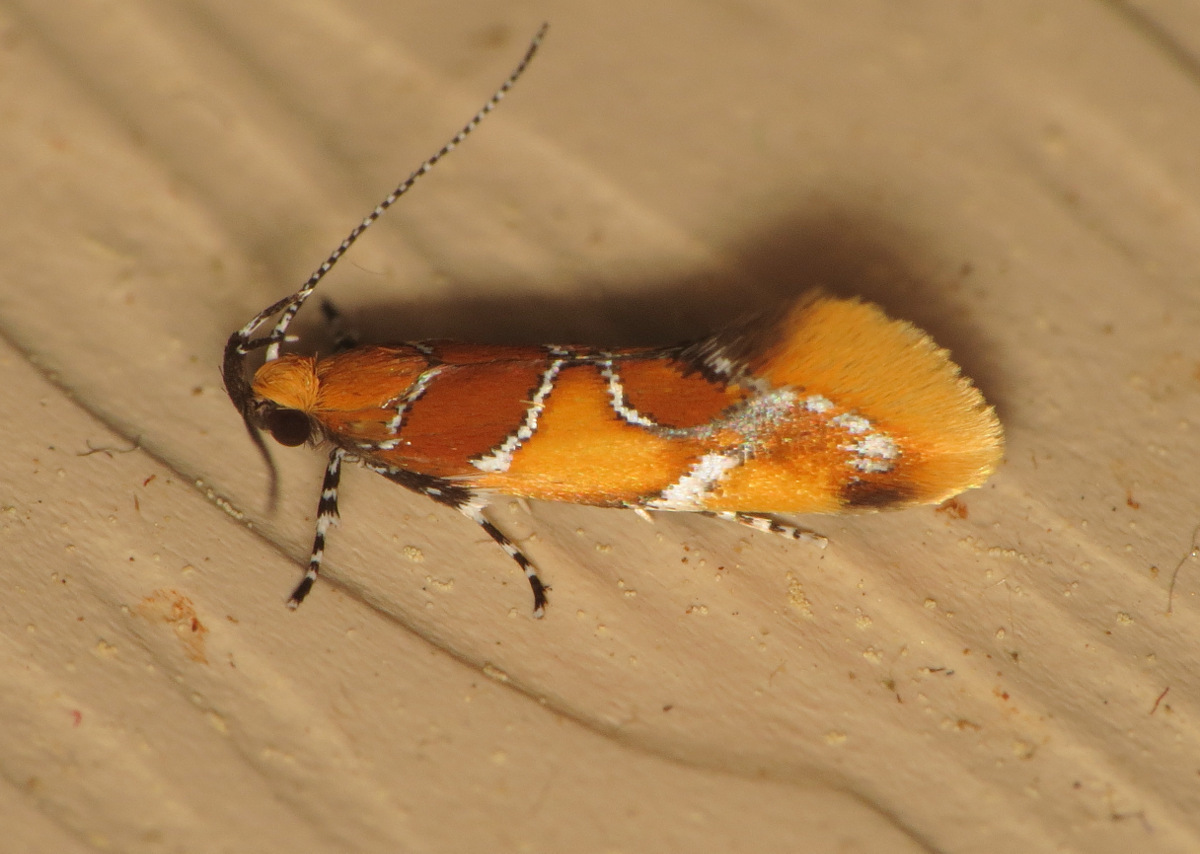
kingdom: Animalia
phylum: Arthropoda
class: Insecta
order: Lepidoptera
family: Oecophoridae
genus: Callima
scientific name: Callima argenticinctella
